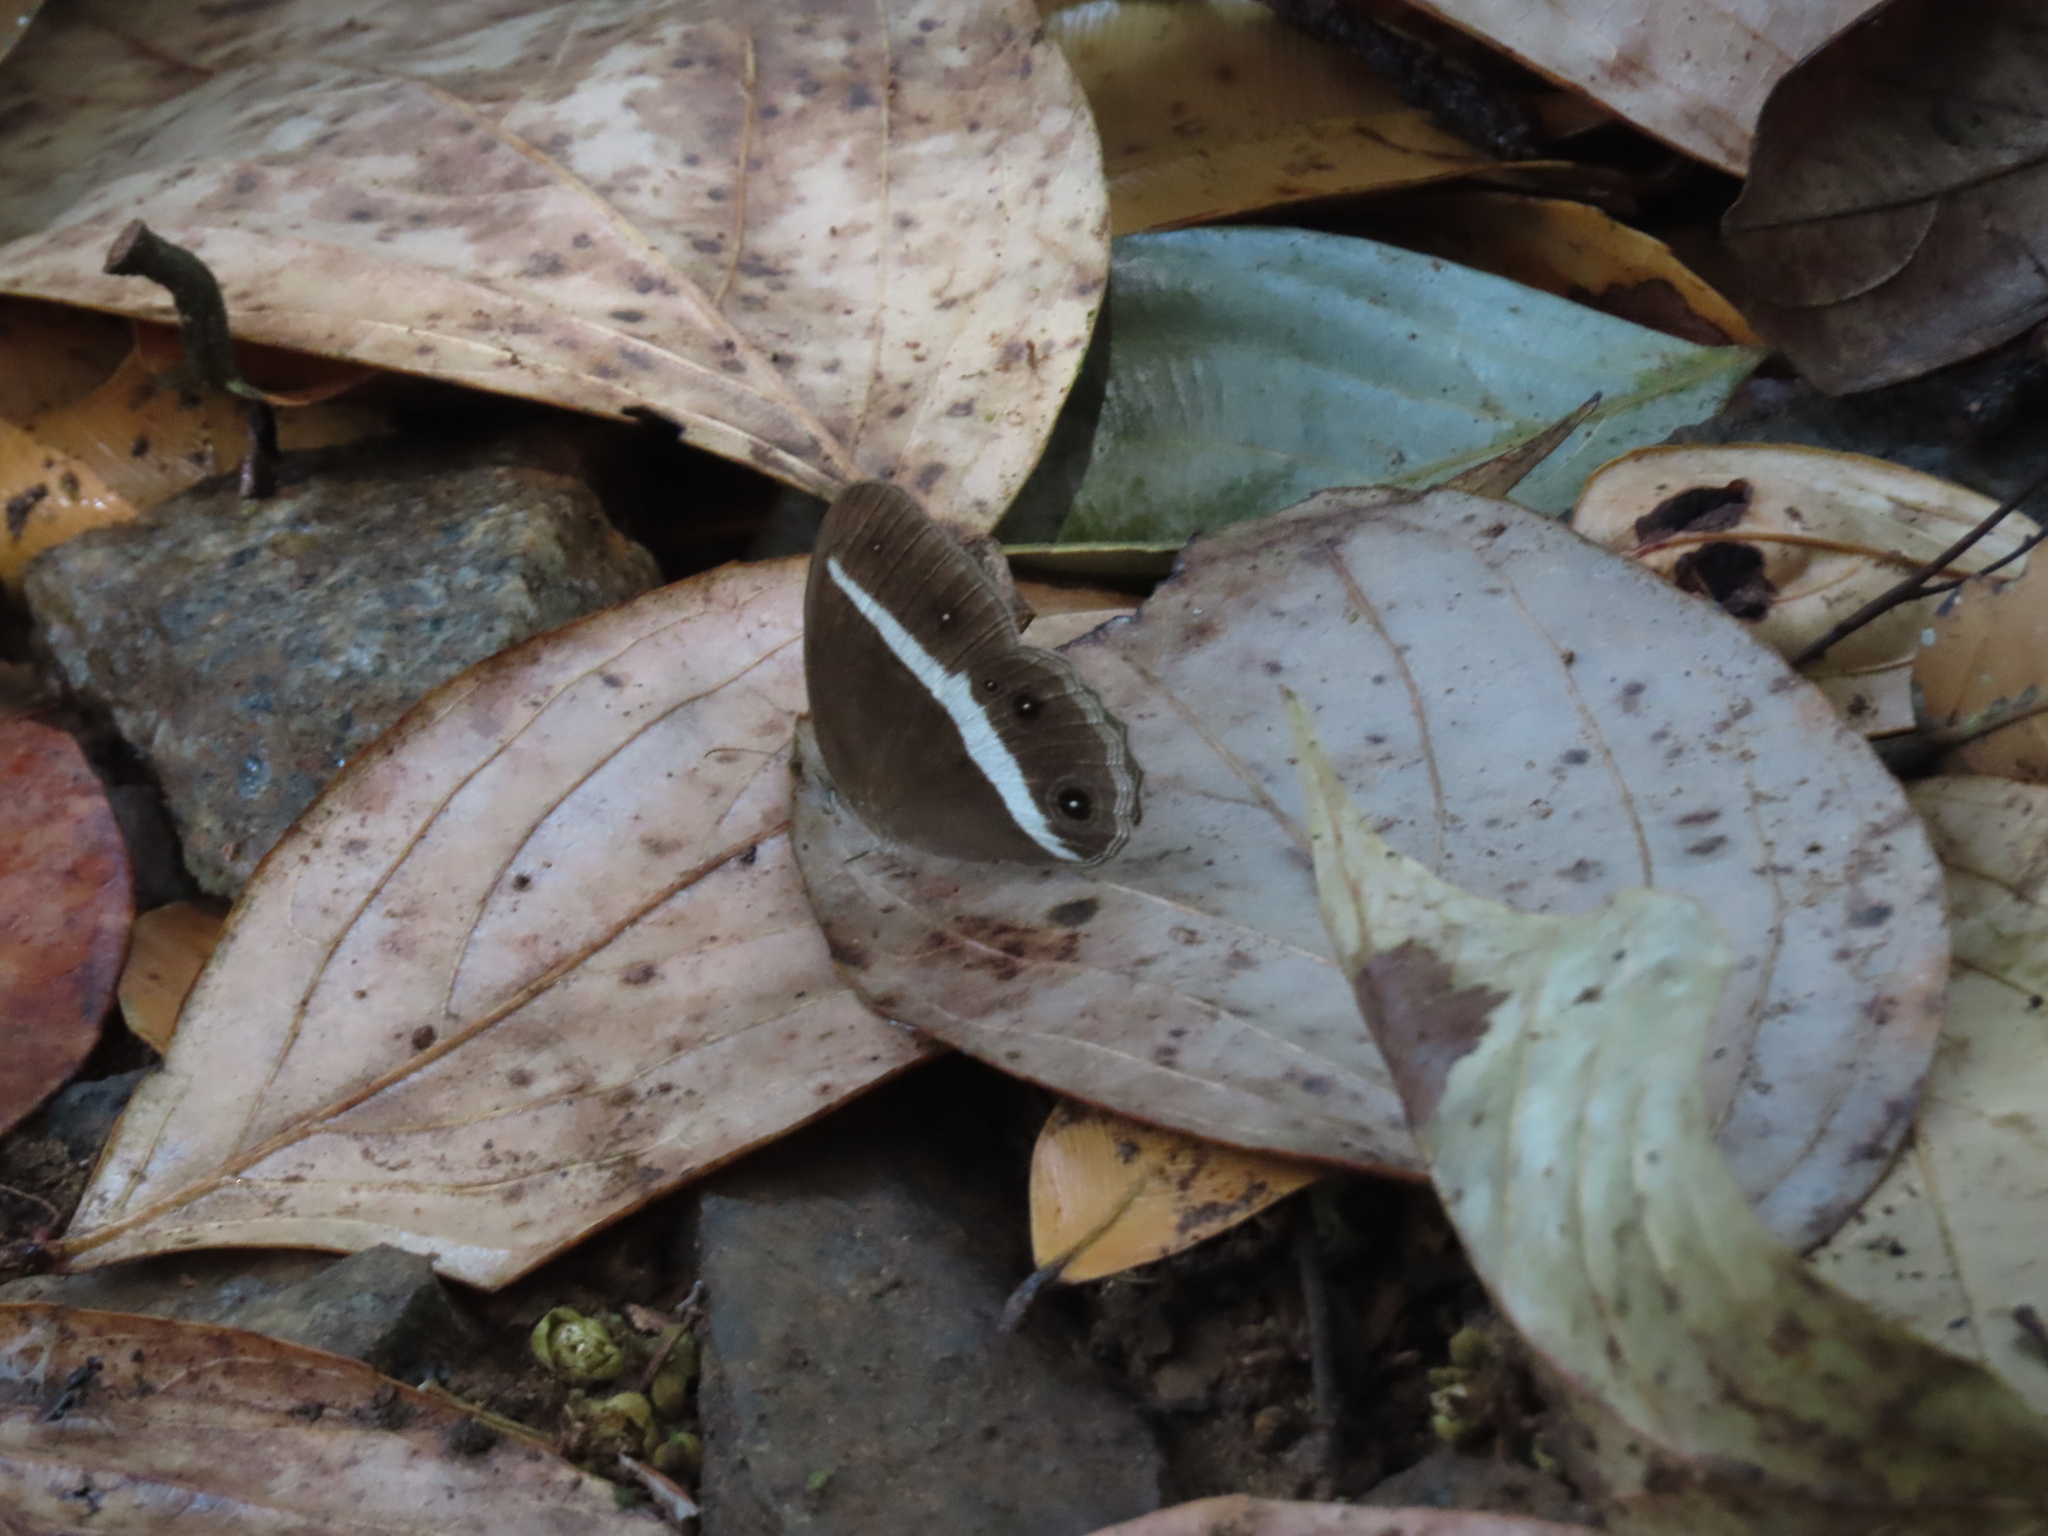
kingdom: Animalia
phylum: Arthropoda
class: Insecta
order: Lepidoptera
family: Nymphalidae
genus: Orsotriaena
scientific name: Orsotriaena medus
